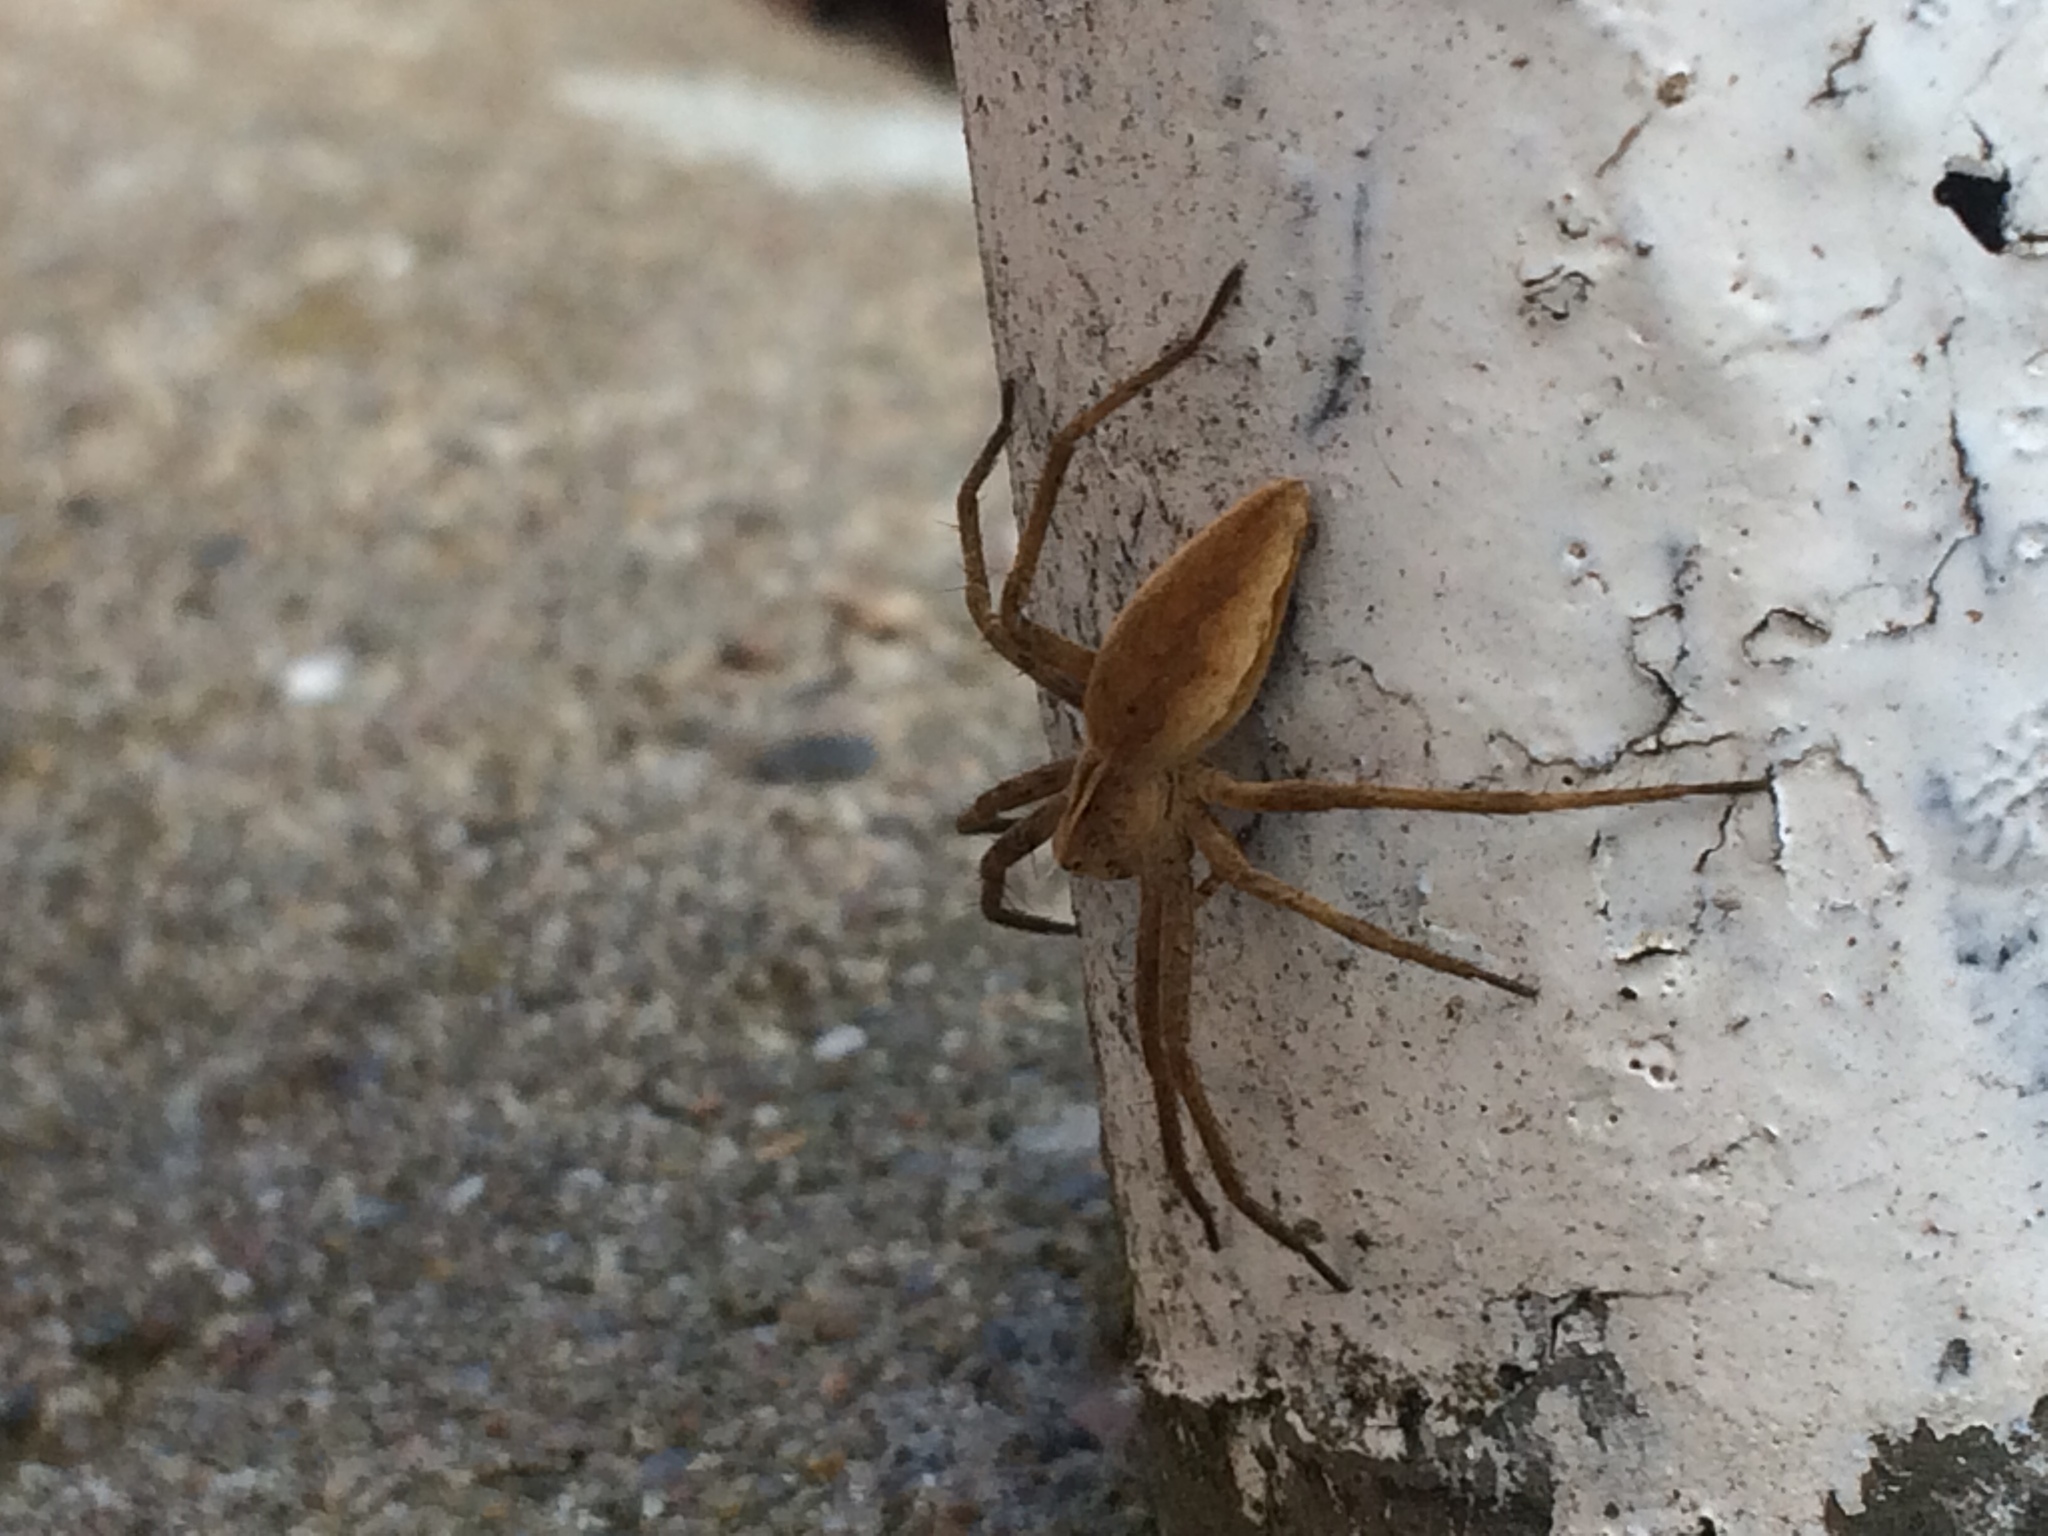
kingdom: Animalia
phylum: Arthropoda
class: Arachnida
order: Araneae
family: Pisauridae
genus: Pisaura
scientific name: Pisaura mirabilis
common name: Tent spider
